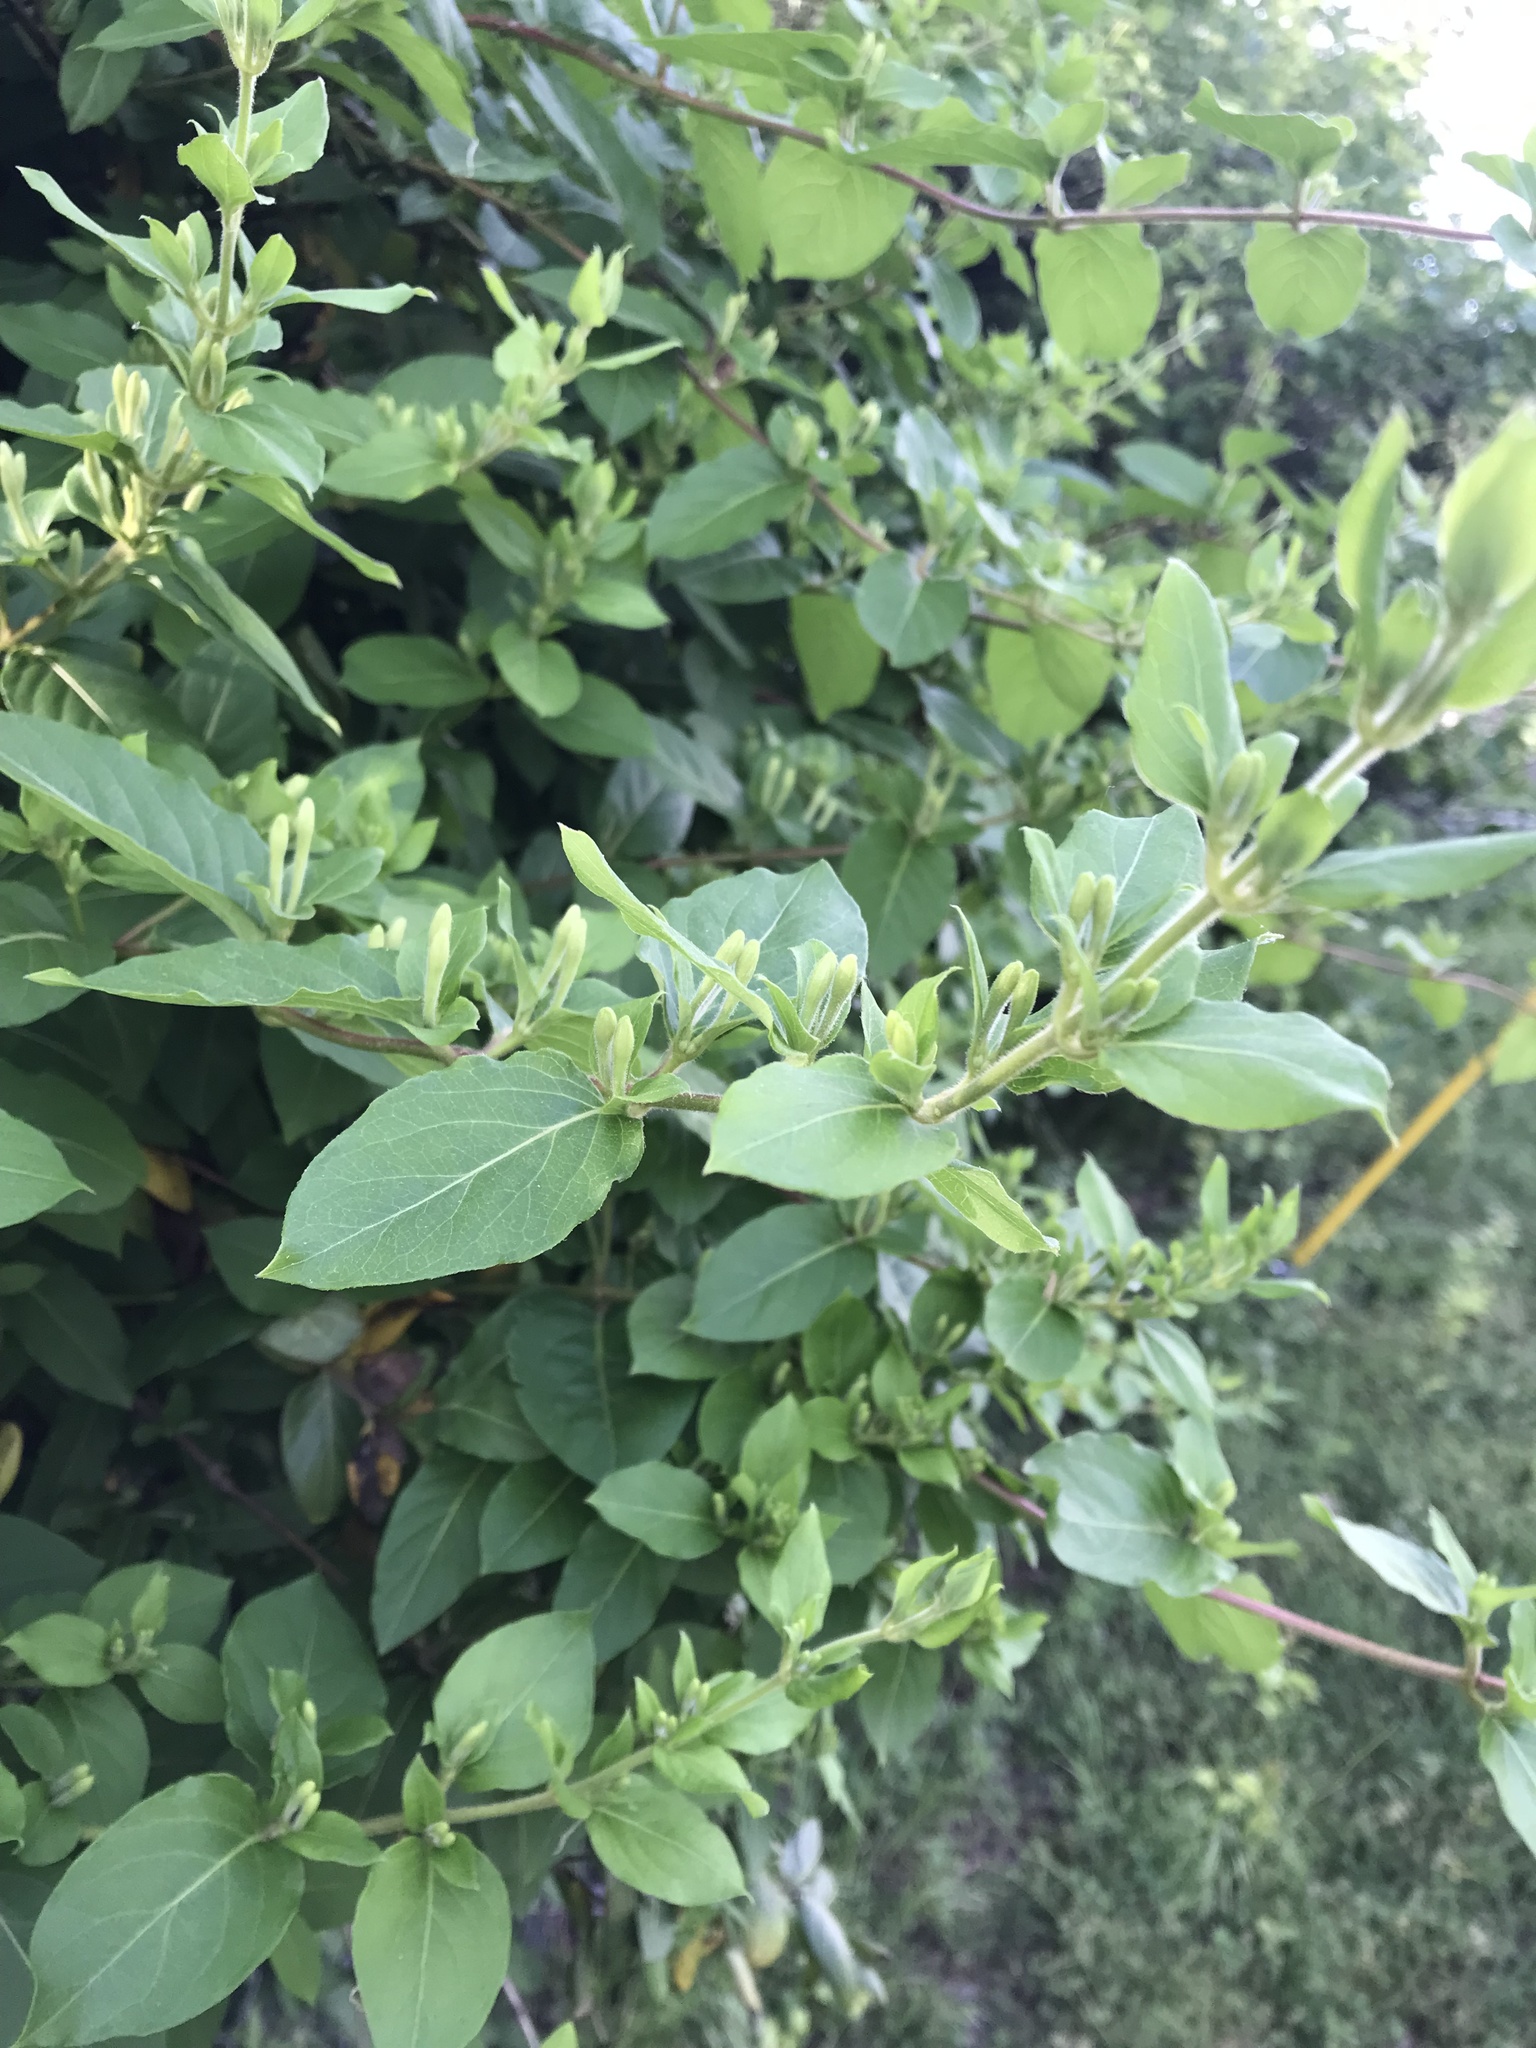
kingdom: Plantae
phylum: Tracheophyta
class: Magnoliopsida
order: Dipsacales
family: Caprifoliaceae
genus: Lonicera
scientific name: Lonicera japonica
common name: Japanese honeysuckle
